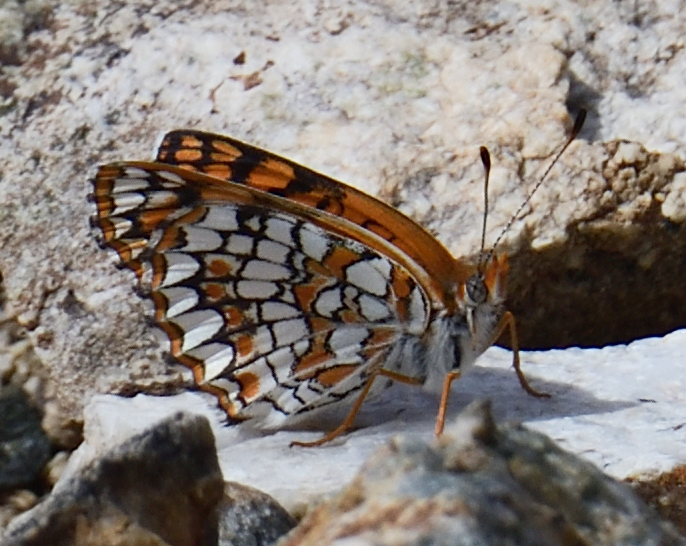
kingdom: Animalia
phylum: Arthropoda
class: Insecta
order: Lepidoptera
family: Nymphalidae
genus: Chlosyne
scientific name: Chlosyne acastus
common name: Sagebrush checkerspot
